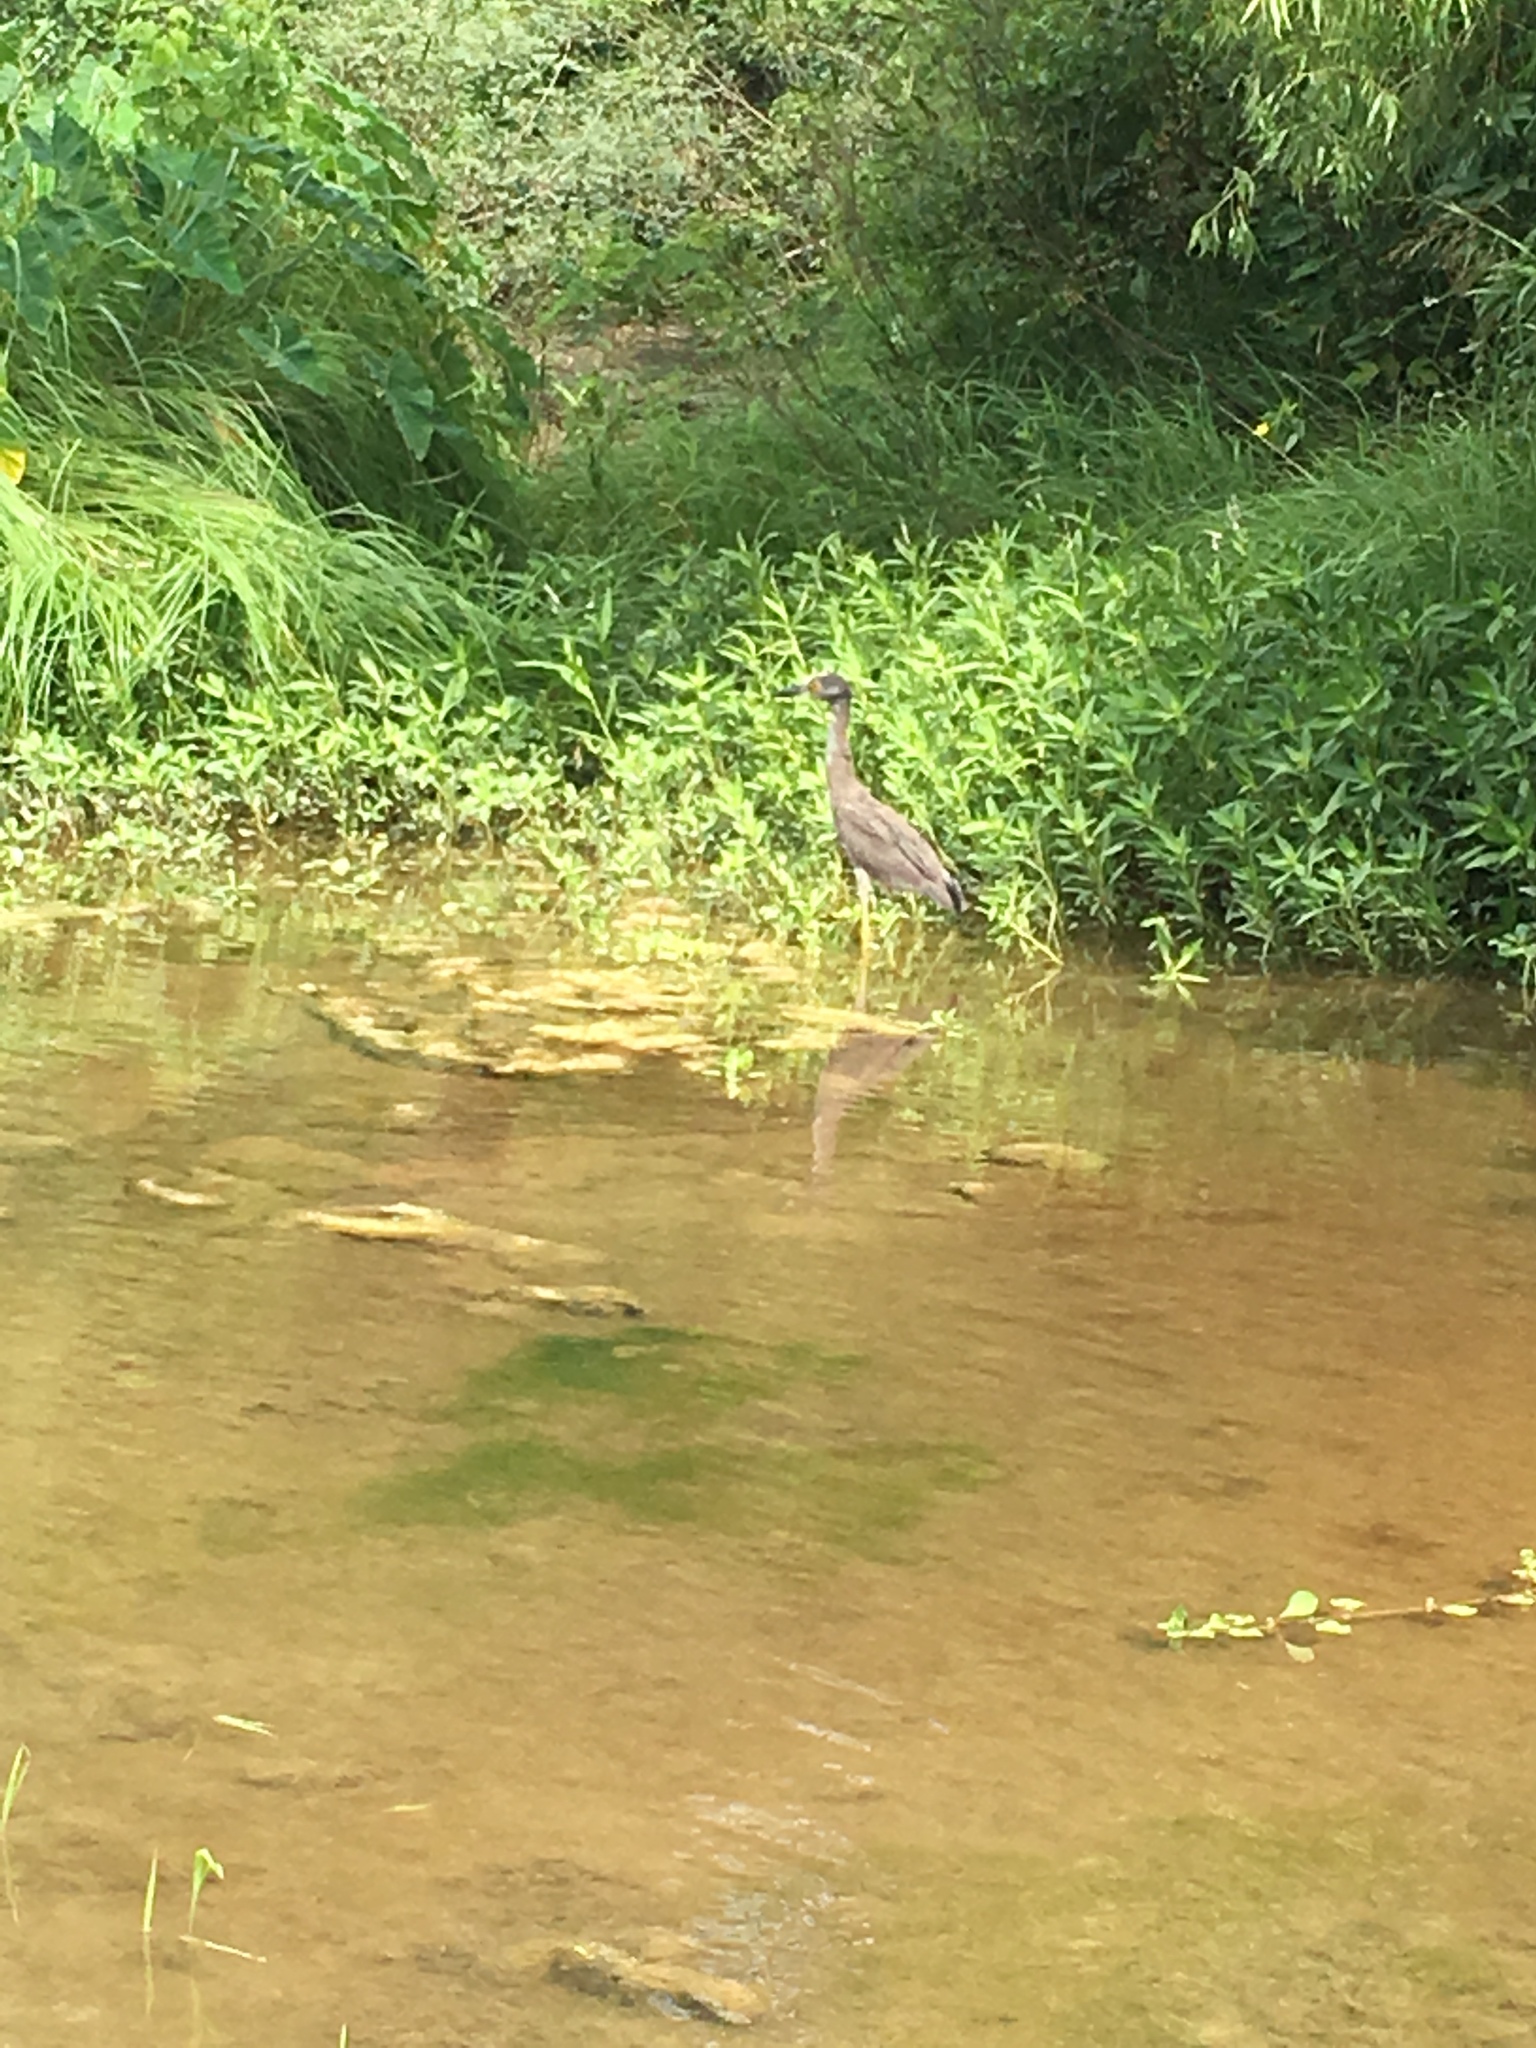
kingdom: Animalia
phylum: Chordata
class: Aves
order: Pelecaniformes
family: Ardeidae
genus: Nyctanassa
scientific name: Nyctanassa violacea
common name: Yellow-crowned night heron
